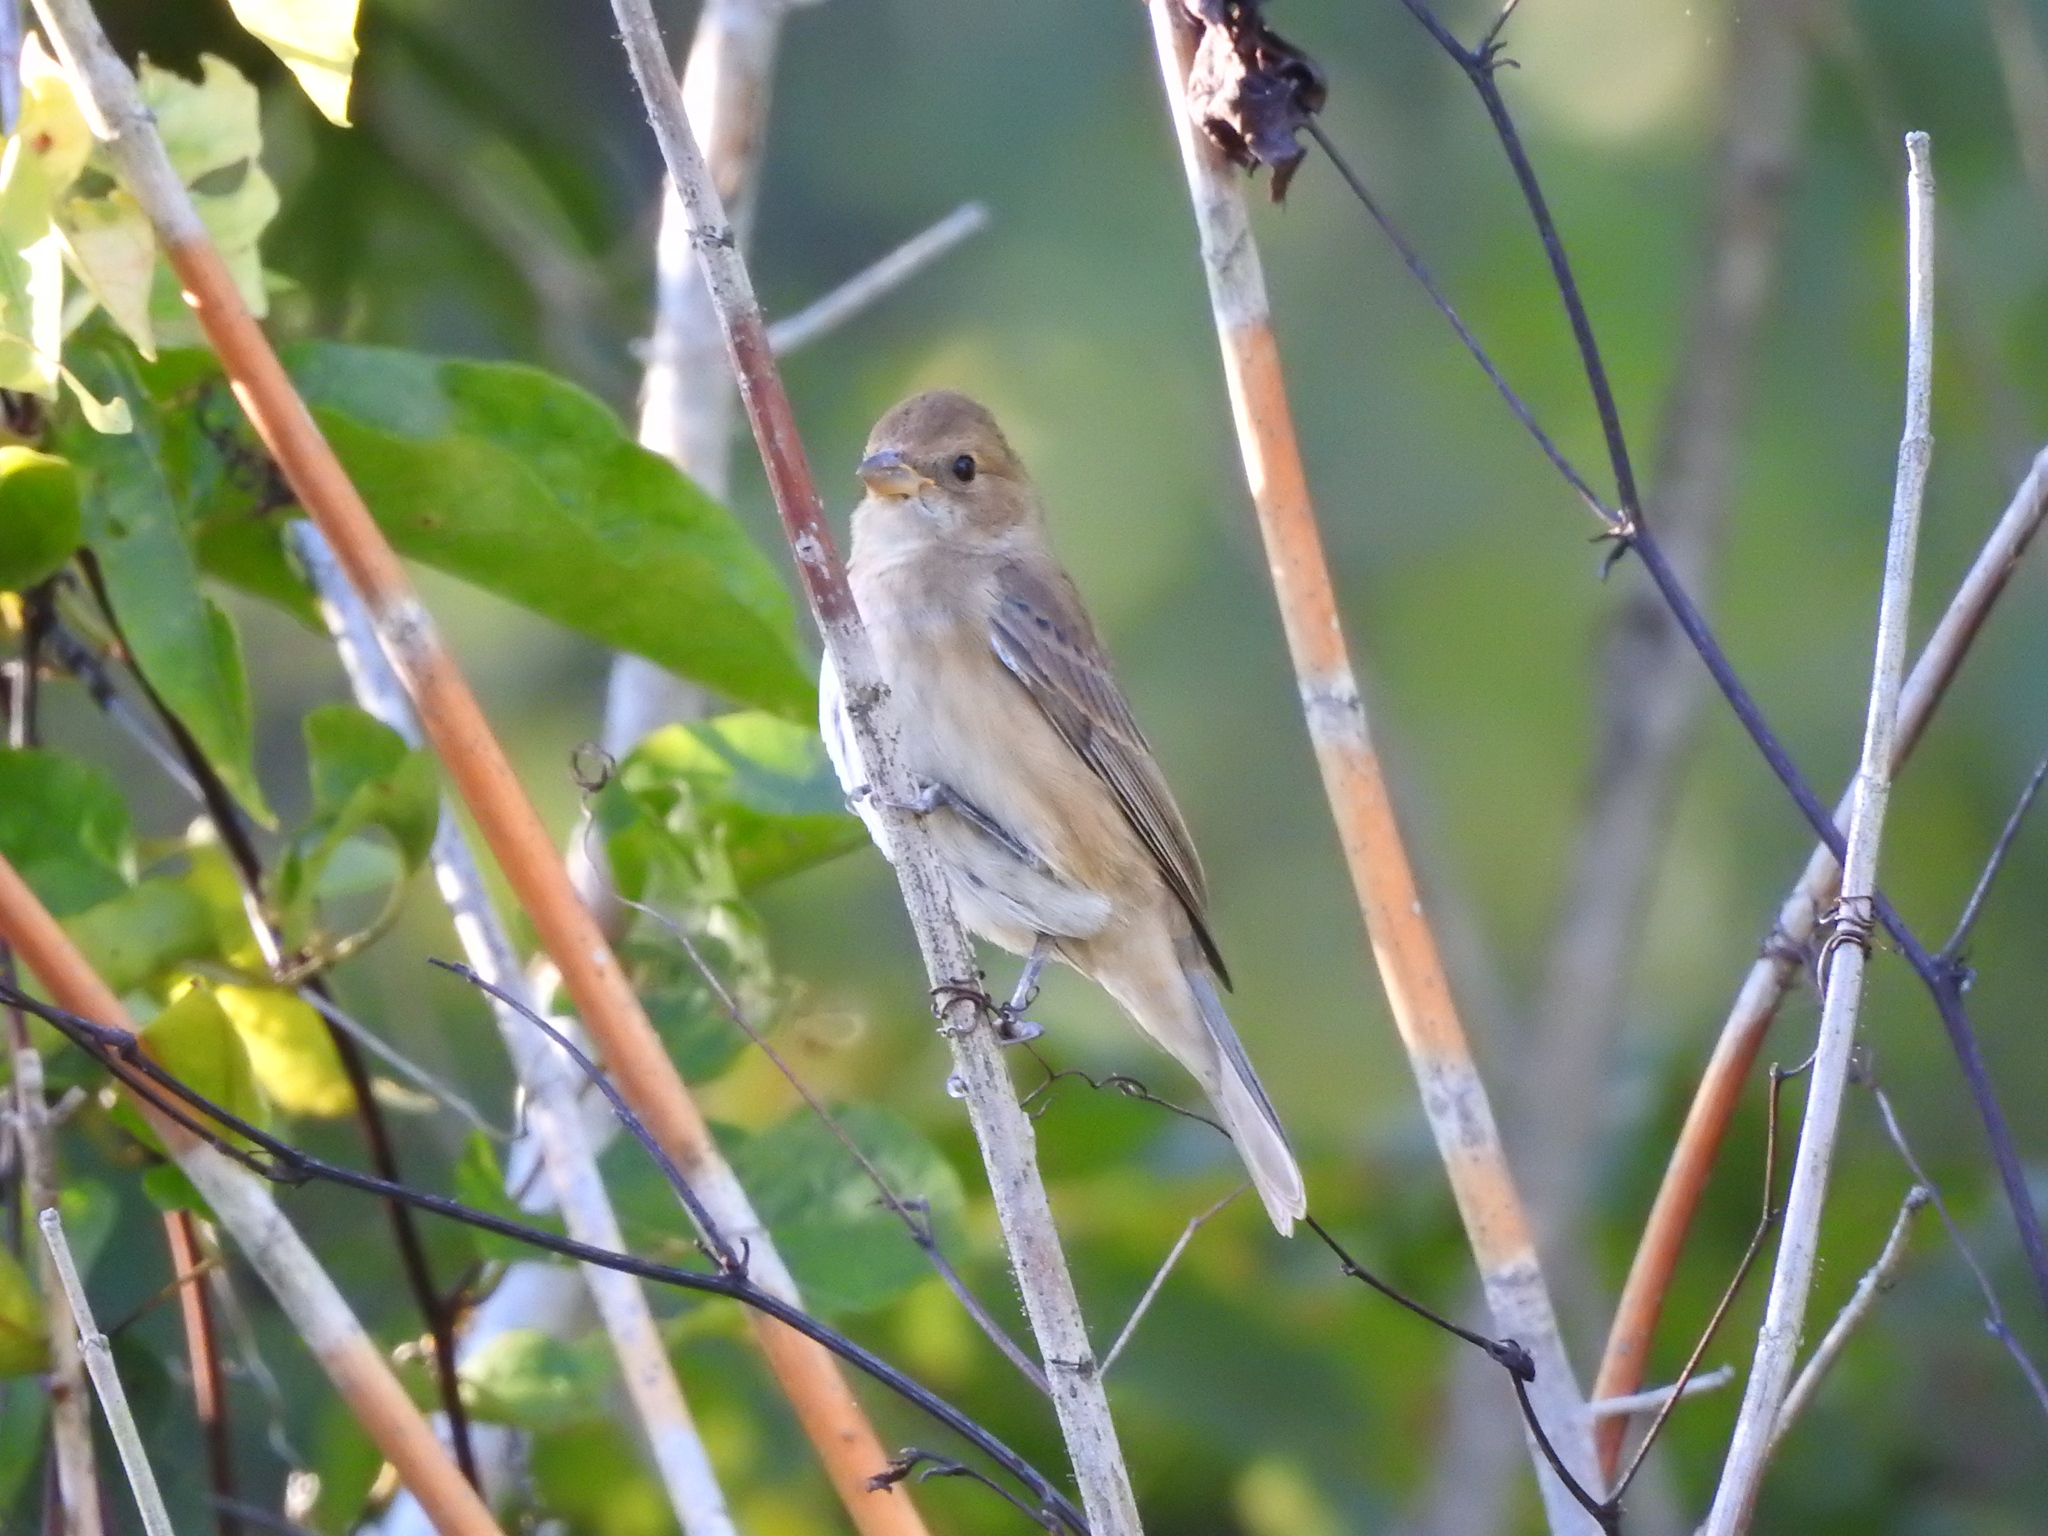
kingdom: Animalia
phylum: Chordata
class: Aves
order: Passeriformes
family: Cardinalidae
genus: Passerina
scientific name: Passerina cyanea
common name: Indigo bunting
